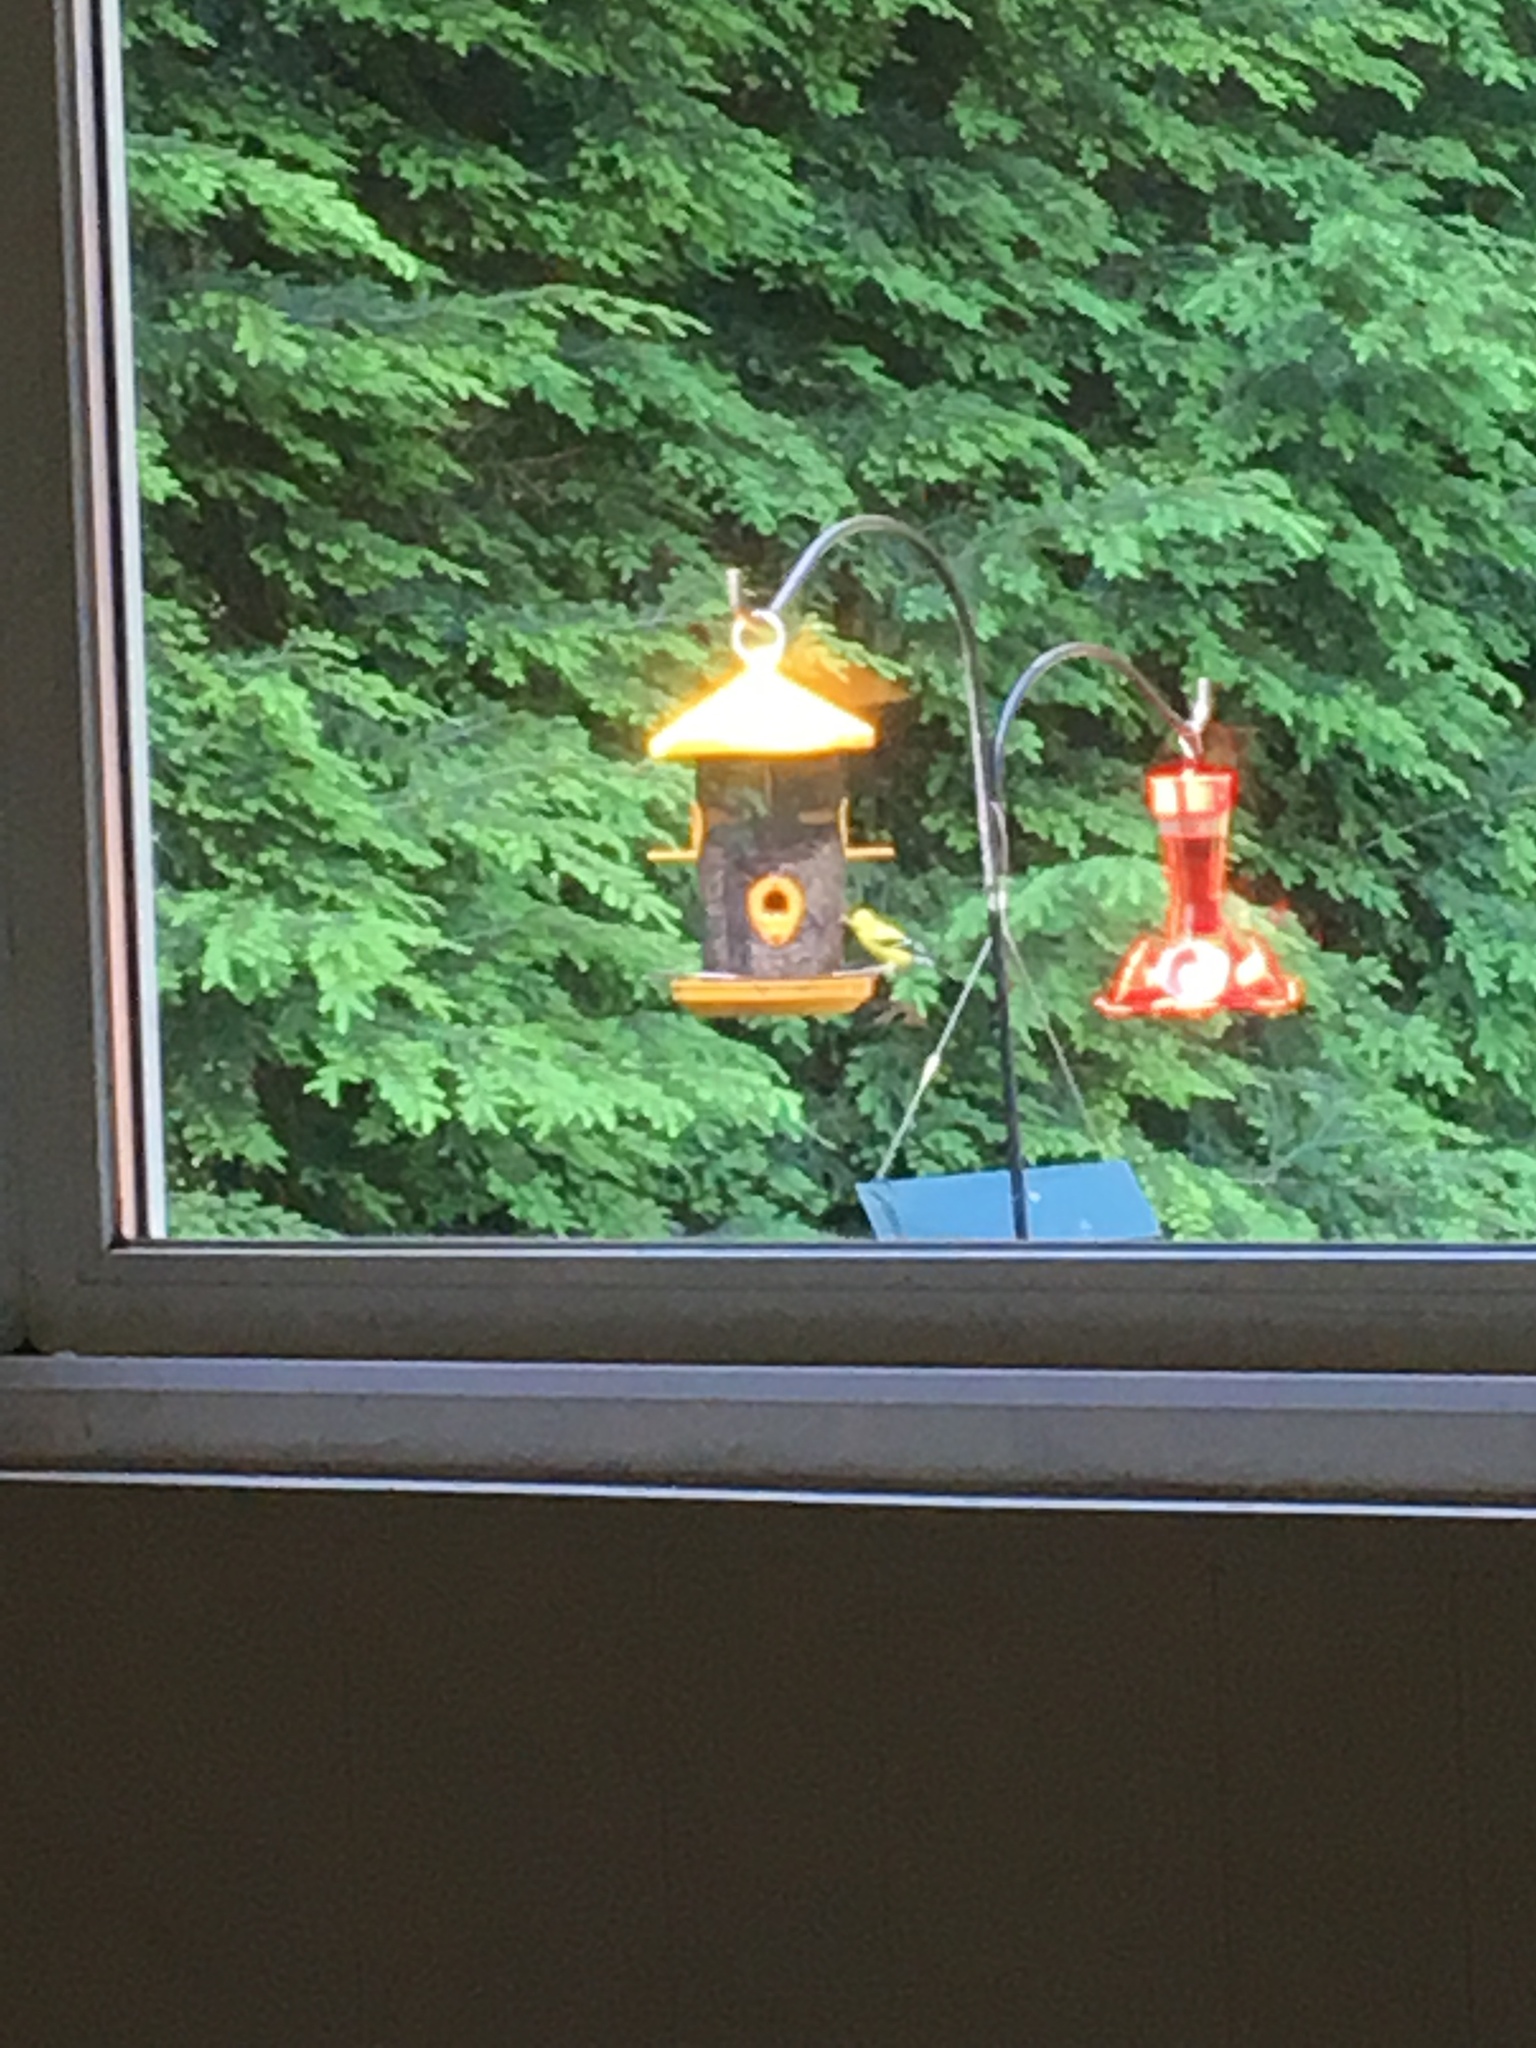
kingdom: Animalia
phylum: Chordata
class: Aves
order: Passeriformes
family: Fringillidae
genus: Spinus
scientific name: Spinus tristis
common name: American goldfinch
